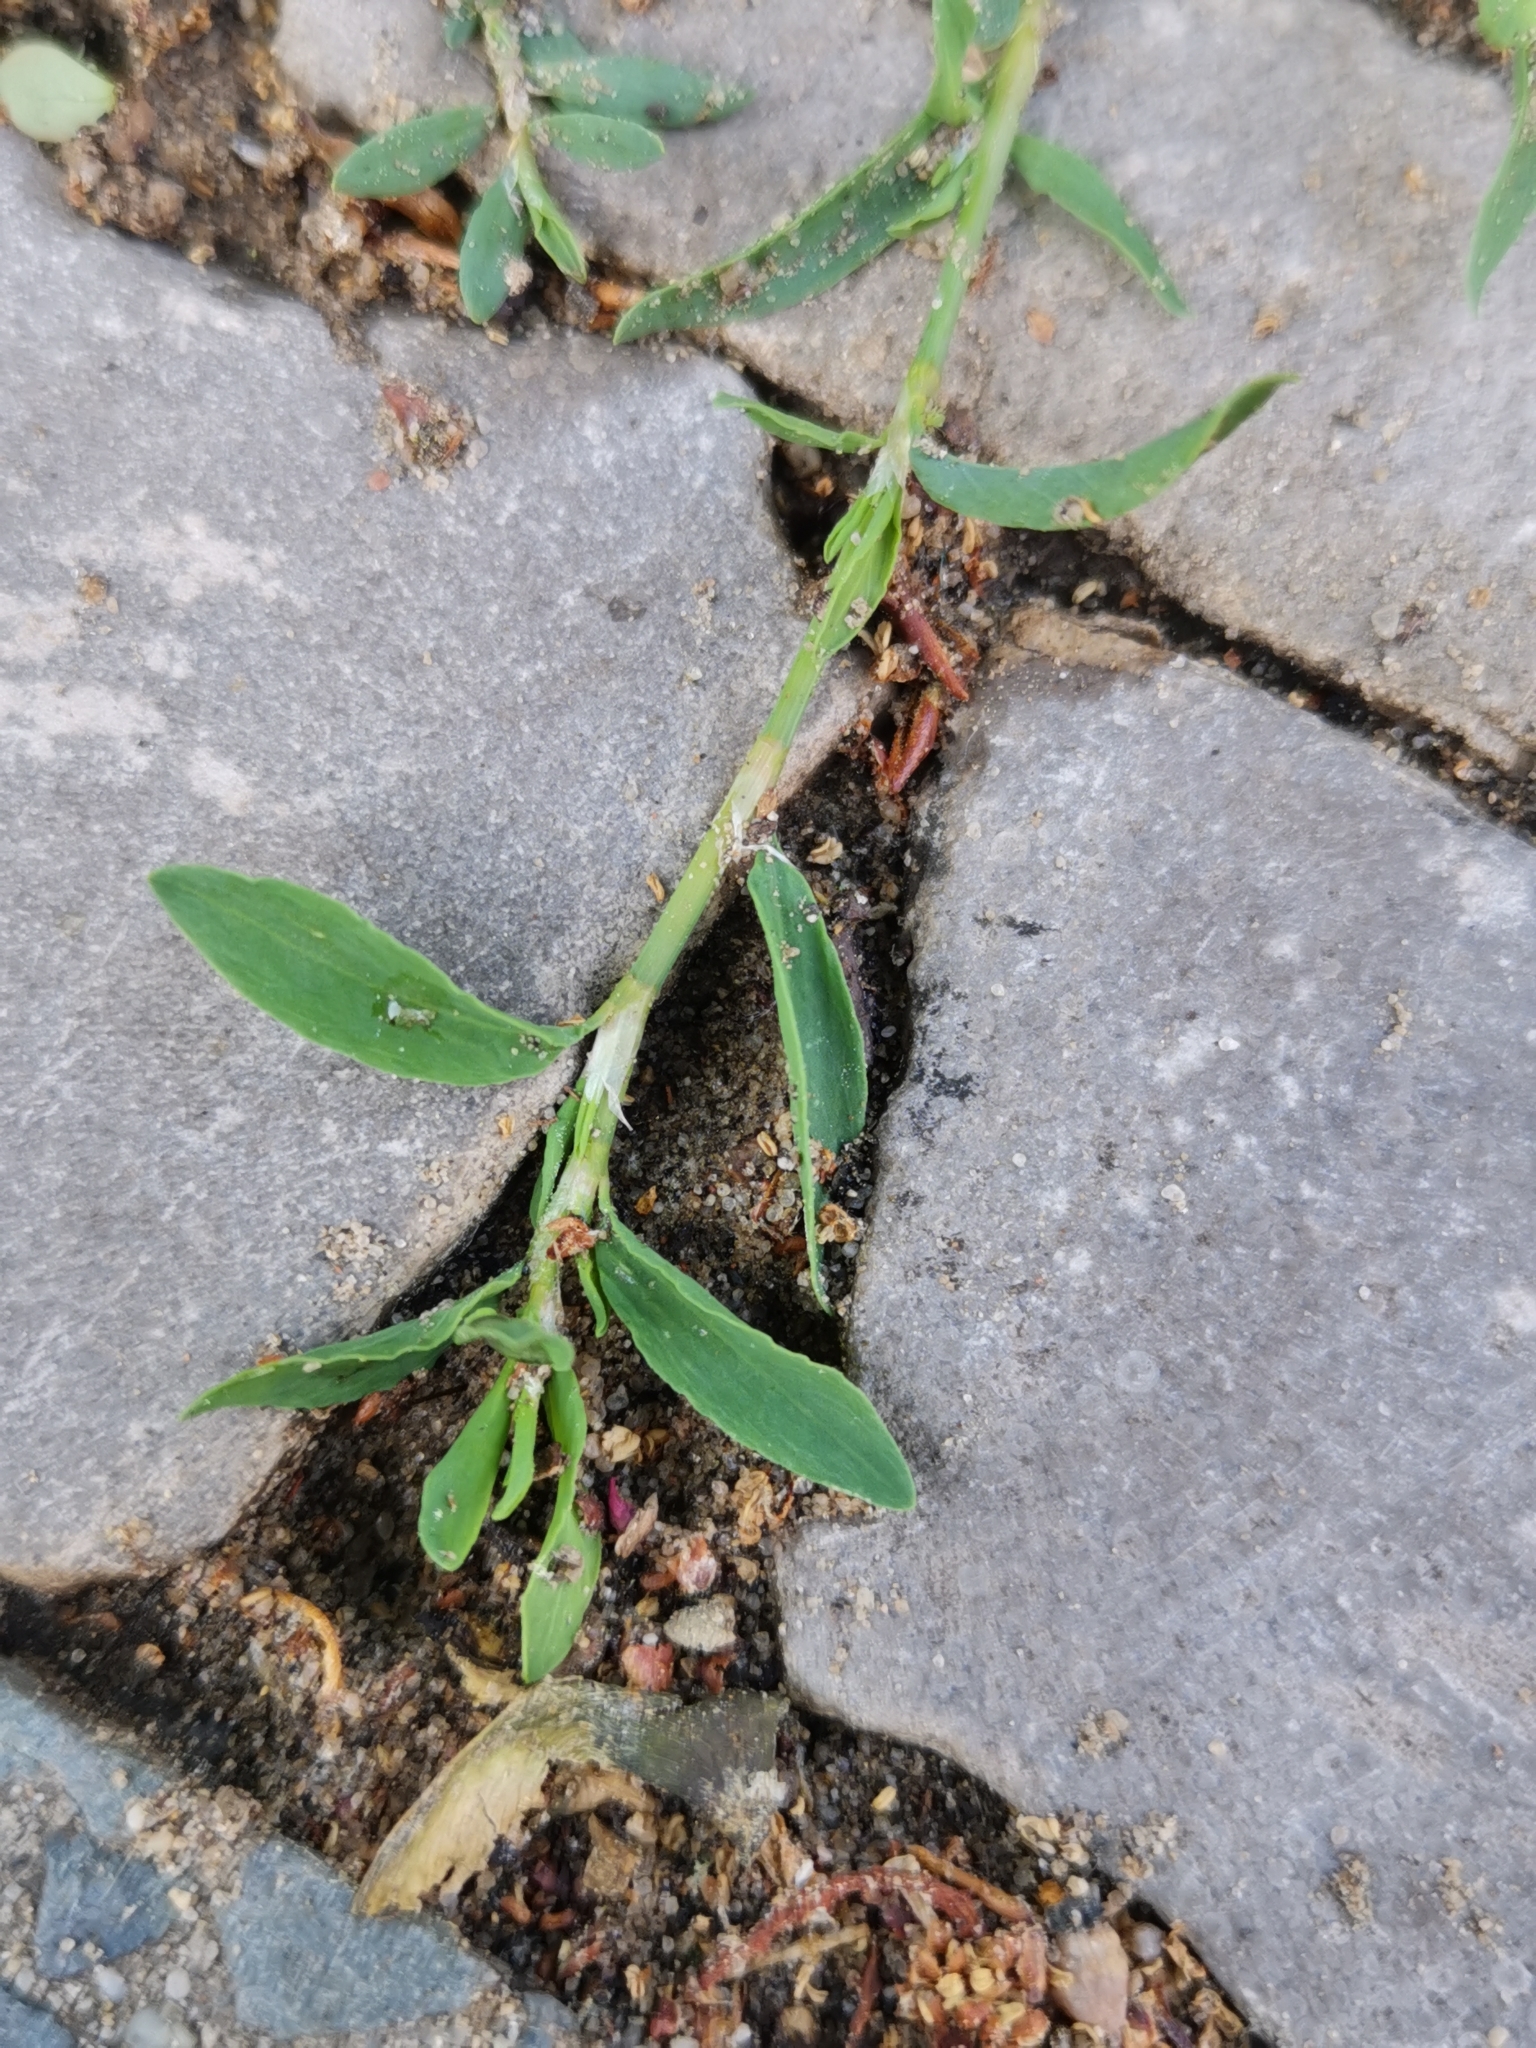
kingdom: Plantae
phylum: Tracheophyta
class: Magnoliopsida
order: Caryophyllales
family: Polygonaceae
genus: Polygonum
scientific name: Polygonum aviculare
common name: Prostrate knotweed
